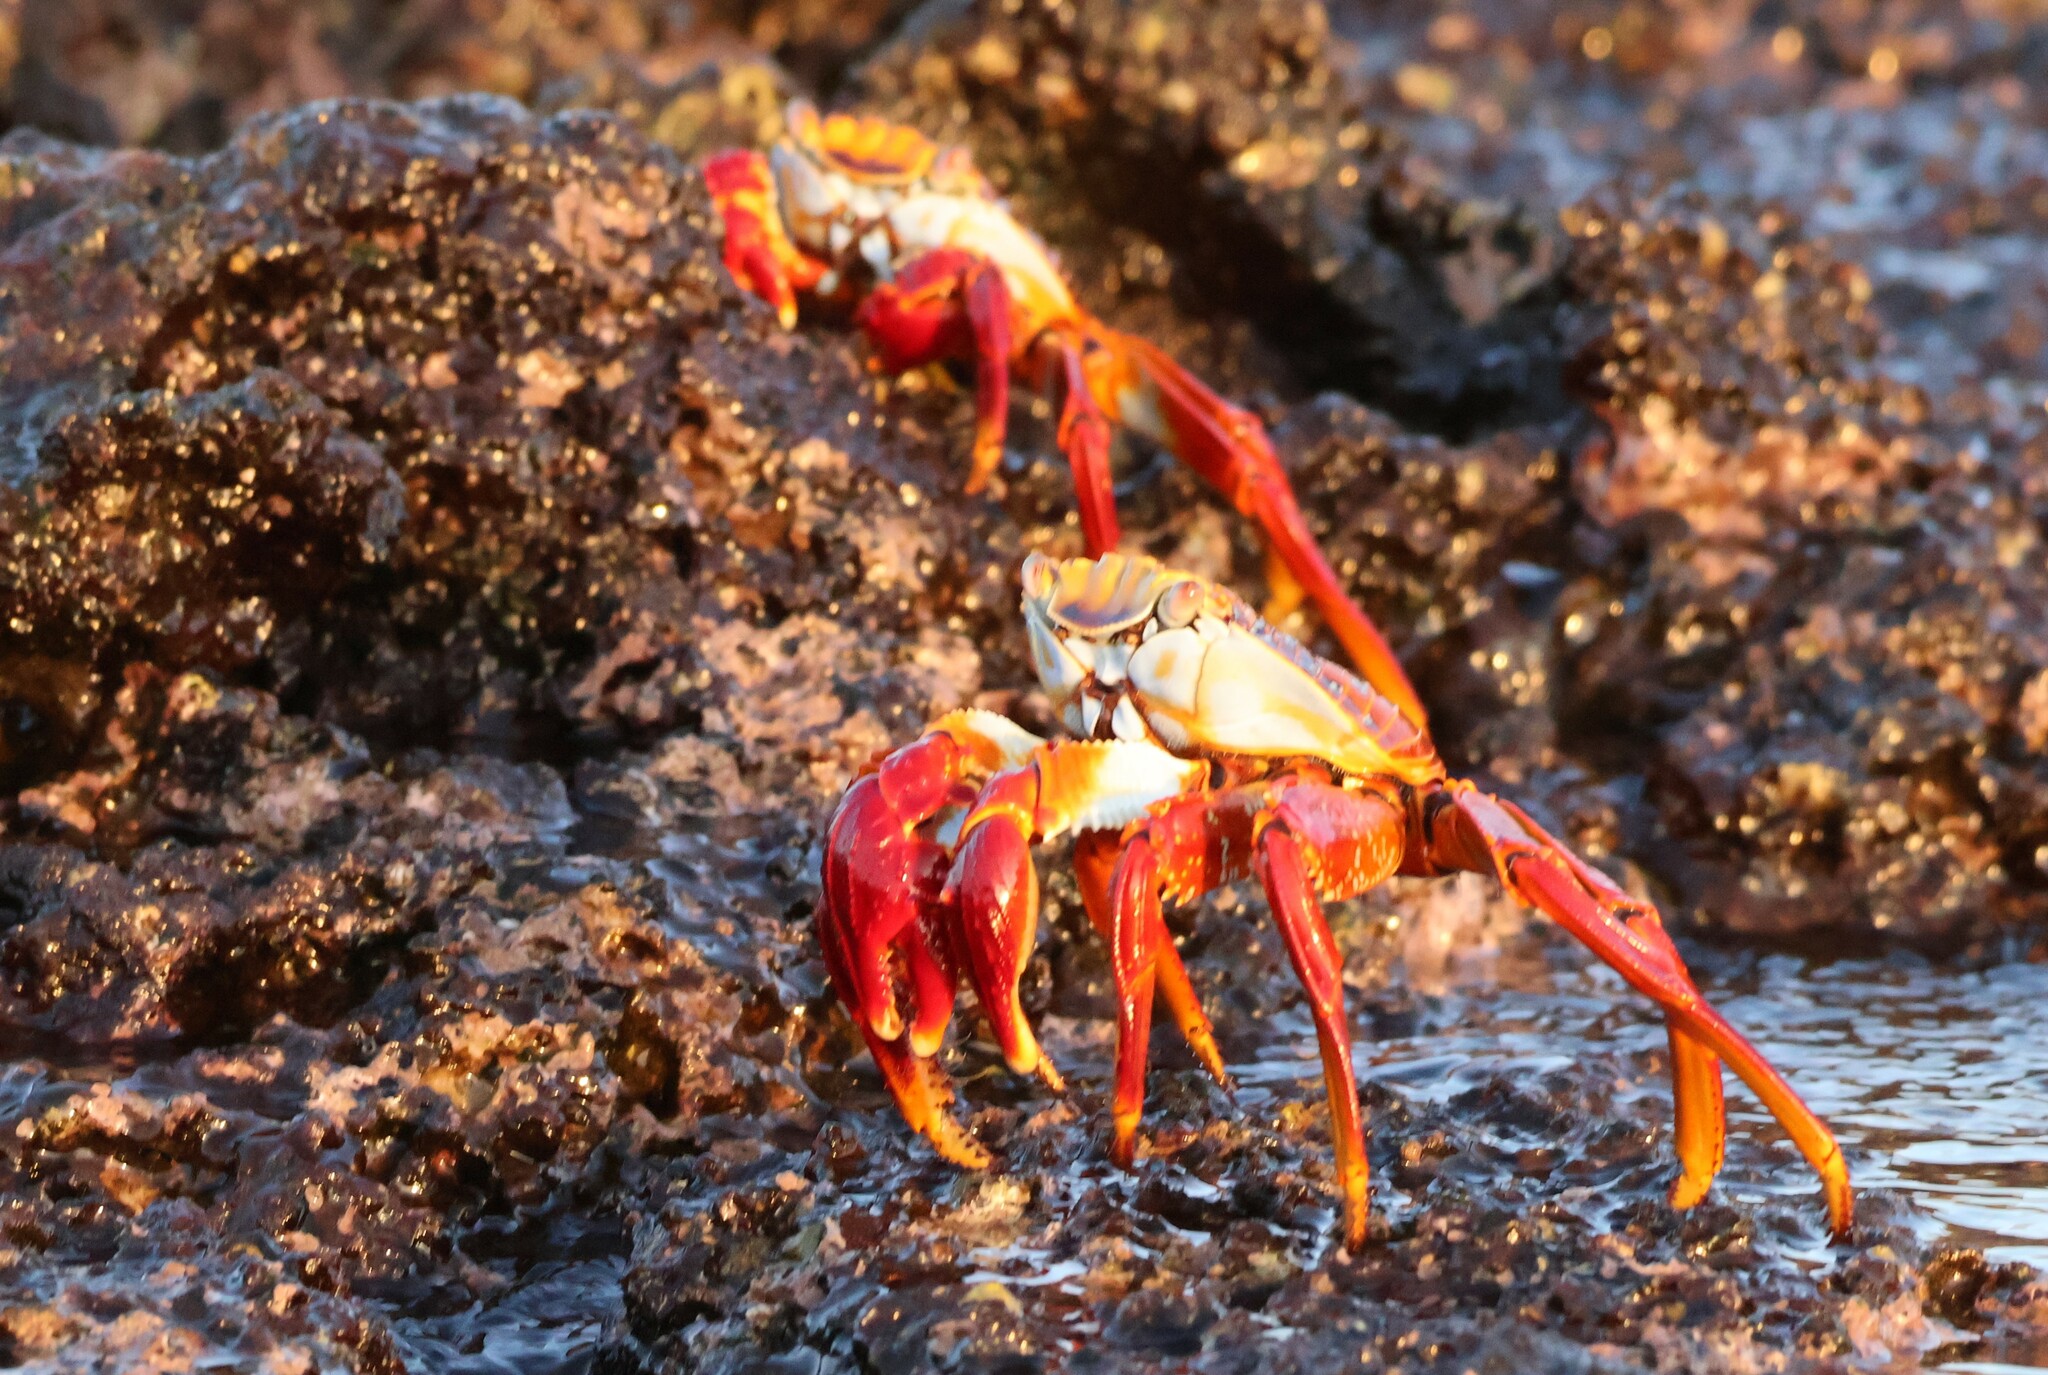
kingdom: Animalia
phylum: Arthropoda
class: Malacostraca
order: Decapoda
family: Grapsidae
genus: Grapsus
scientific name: Grapsus grapsus
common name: Sally lightfoot
